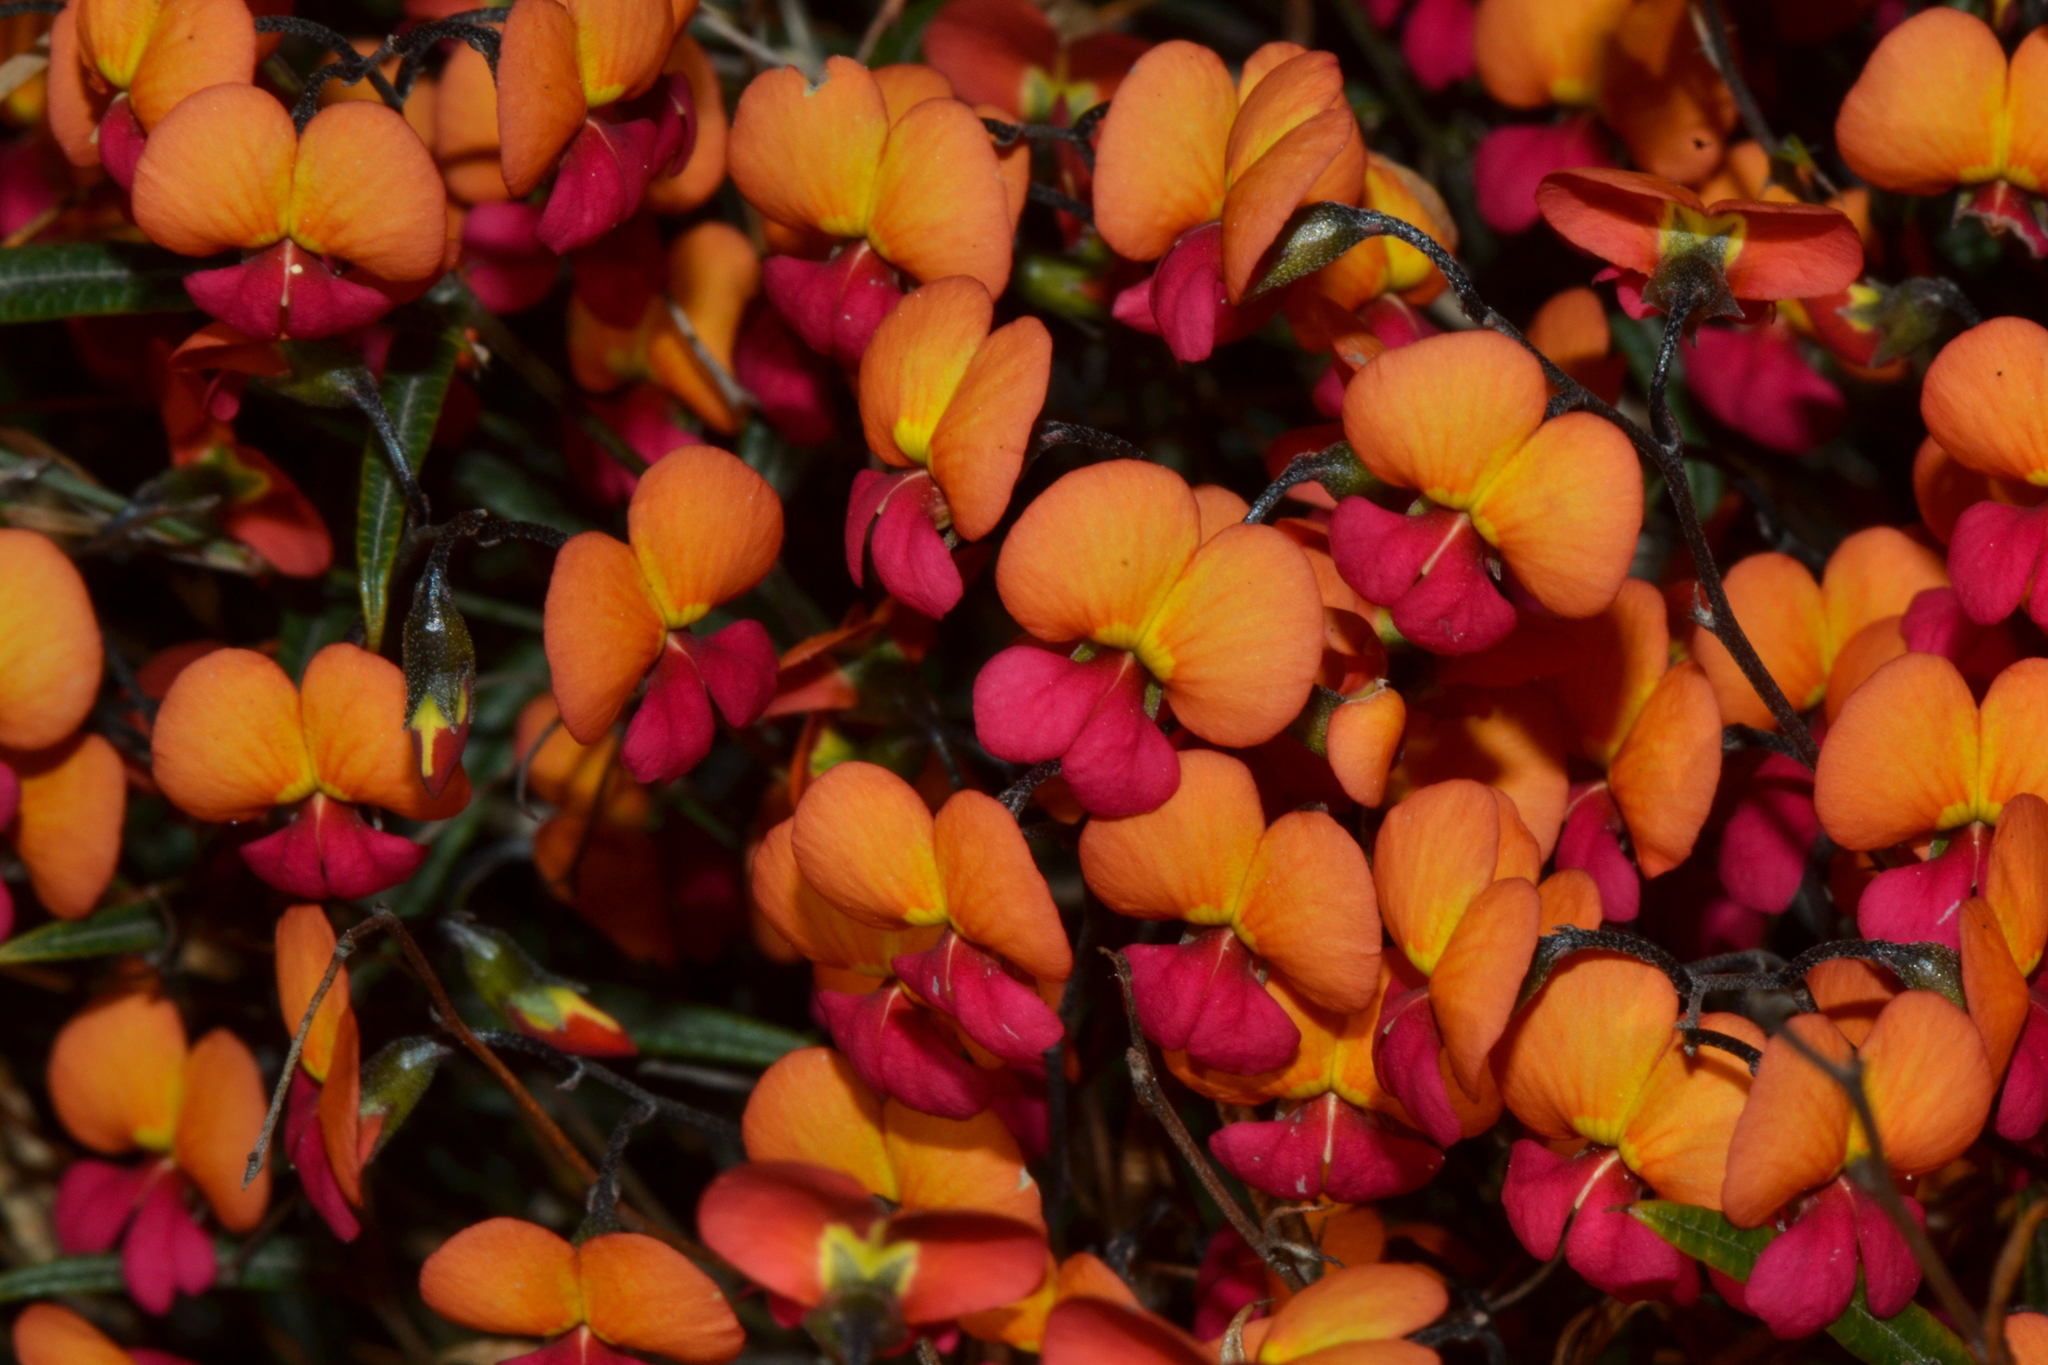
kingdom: Plantae
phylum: Tracheophyta
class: Magnoliopsida
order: Fabales
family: Fabaceae
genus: Chorizema
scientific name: Chorizema glycinifolium
